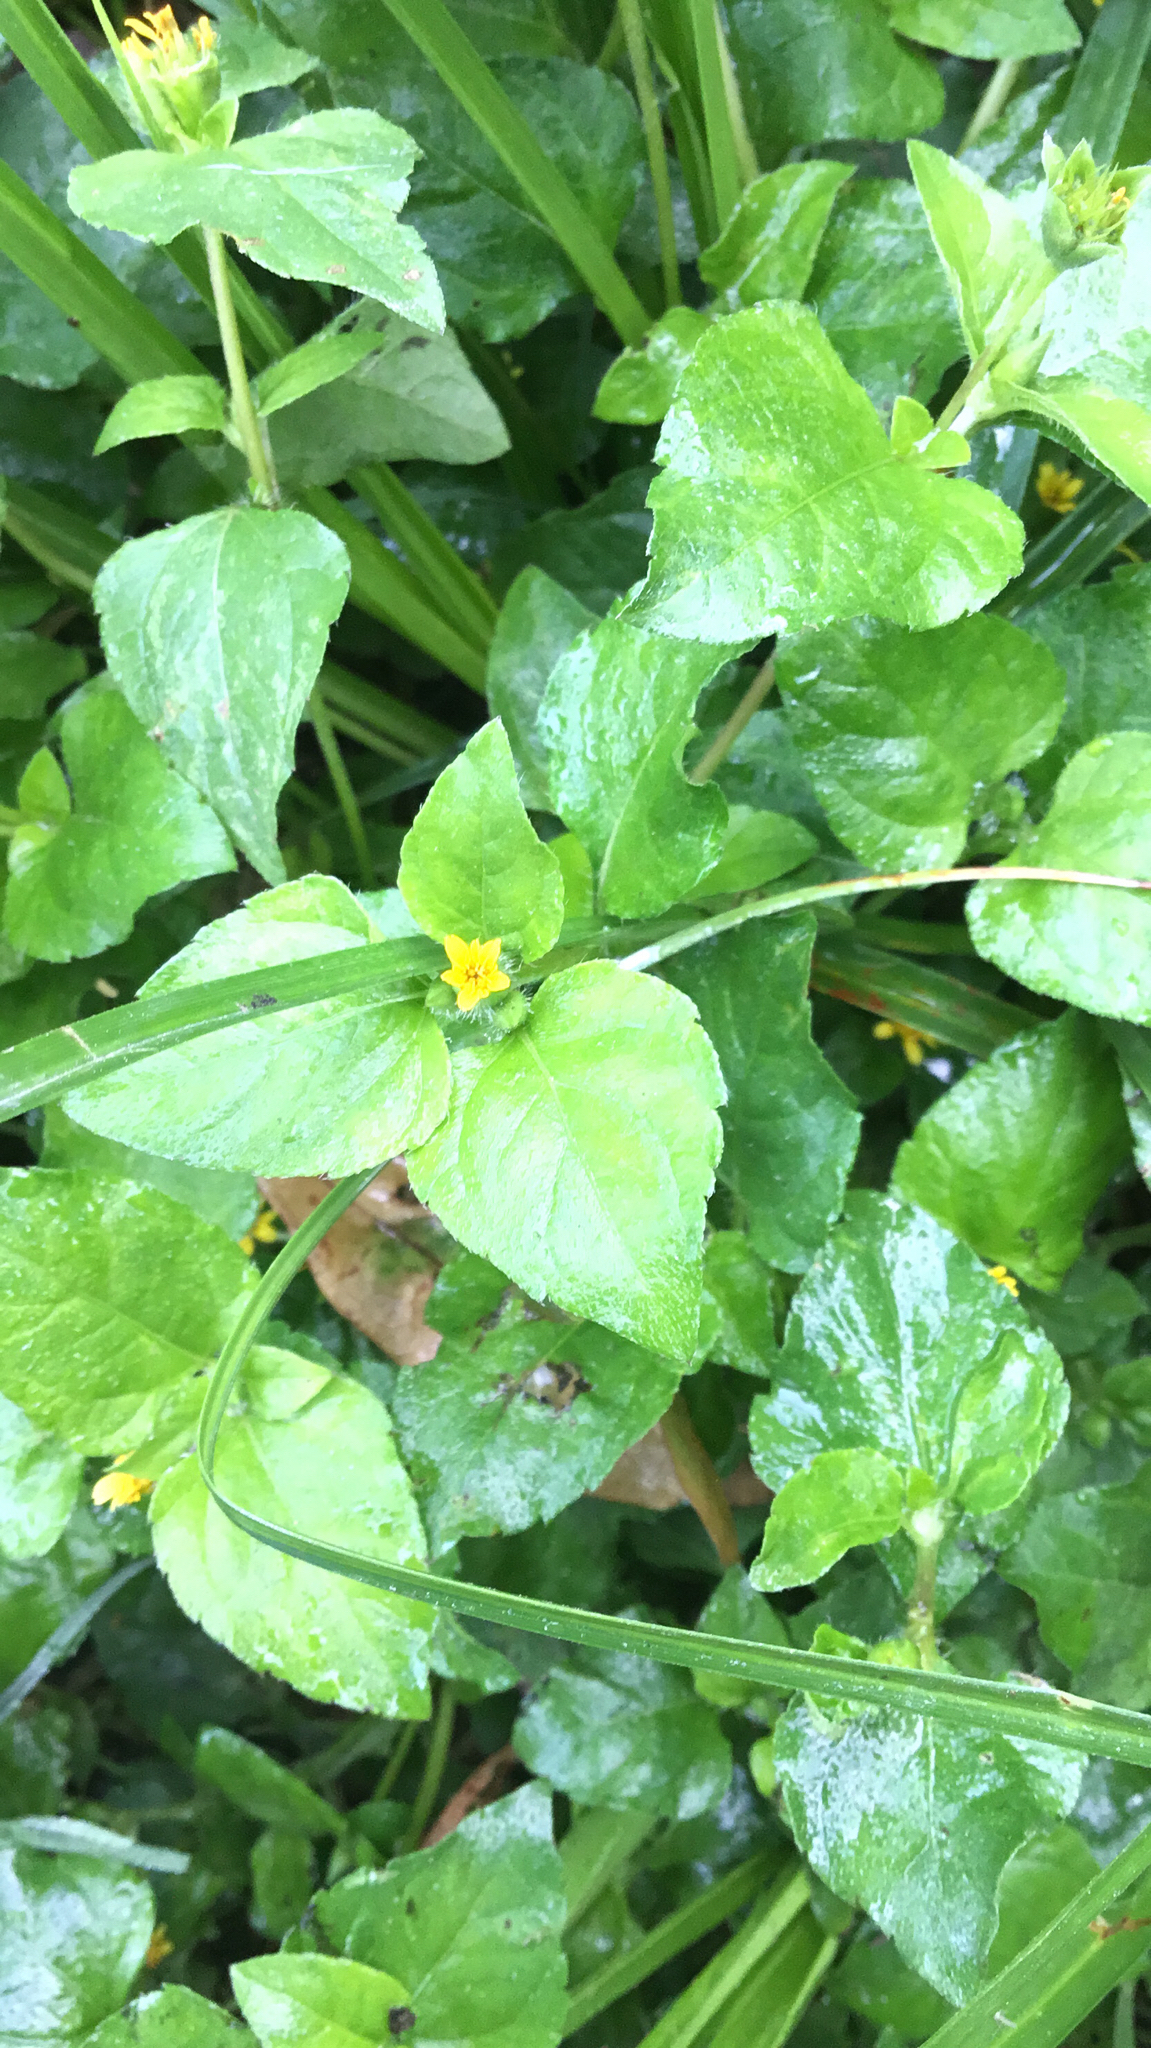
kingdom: Plantae
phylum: Tracheophyta
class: Magnoliopsida
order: Asterales
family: Asteraceae
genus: Calyptocarpus
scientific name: Calyptocarpus vialis
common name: Straggler daisy
